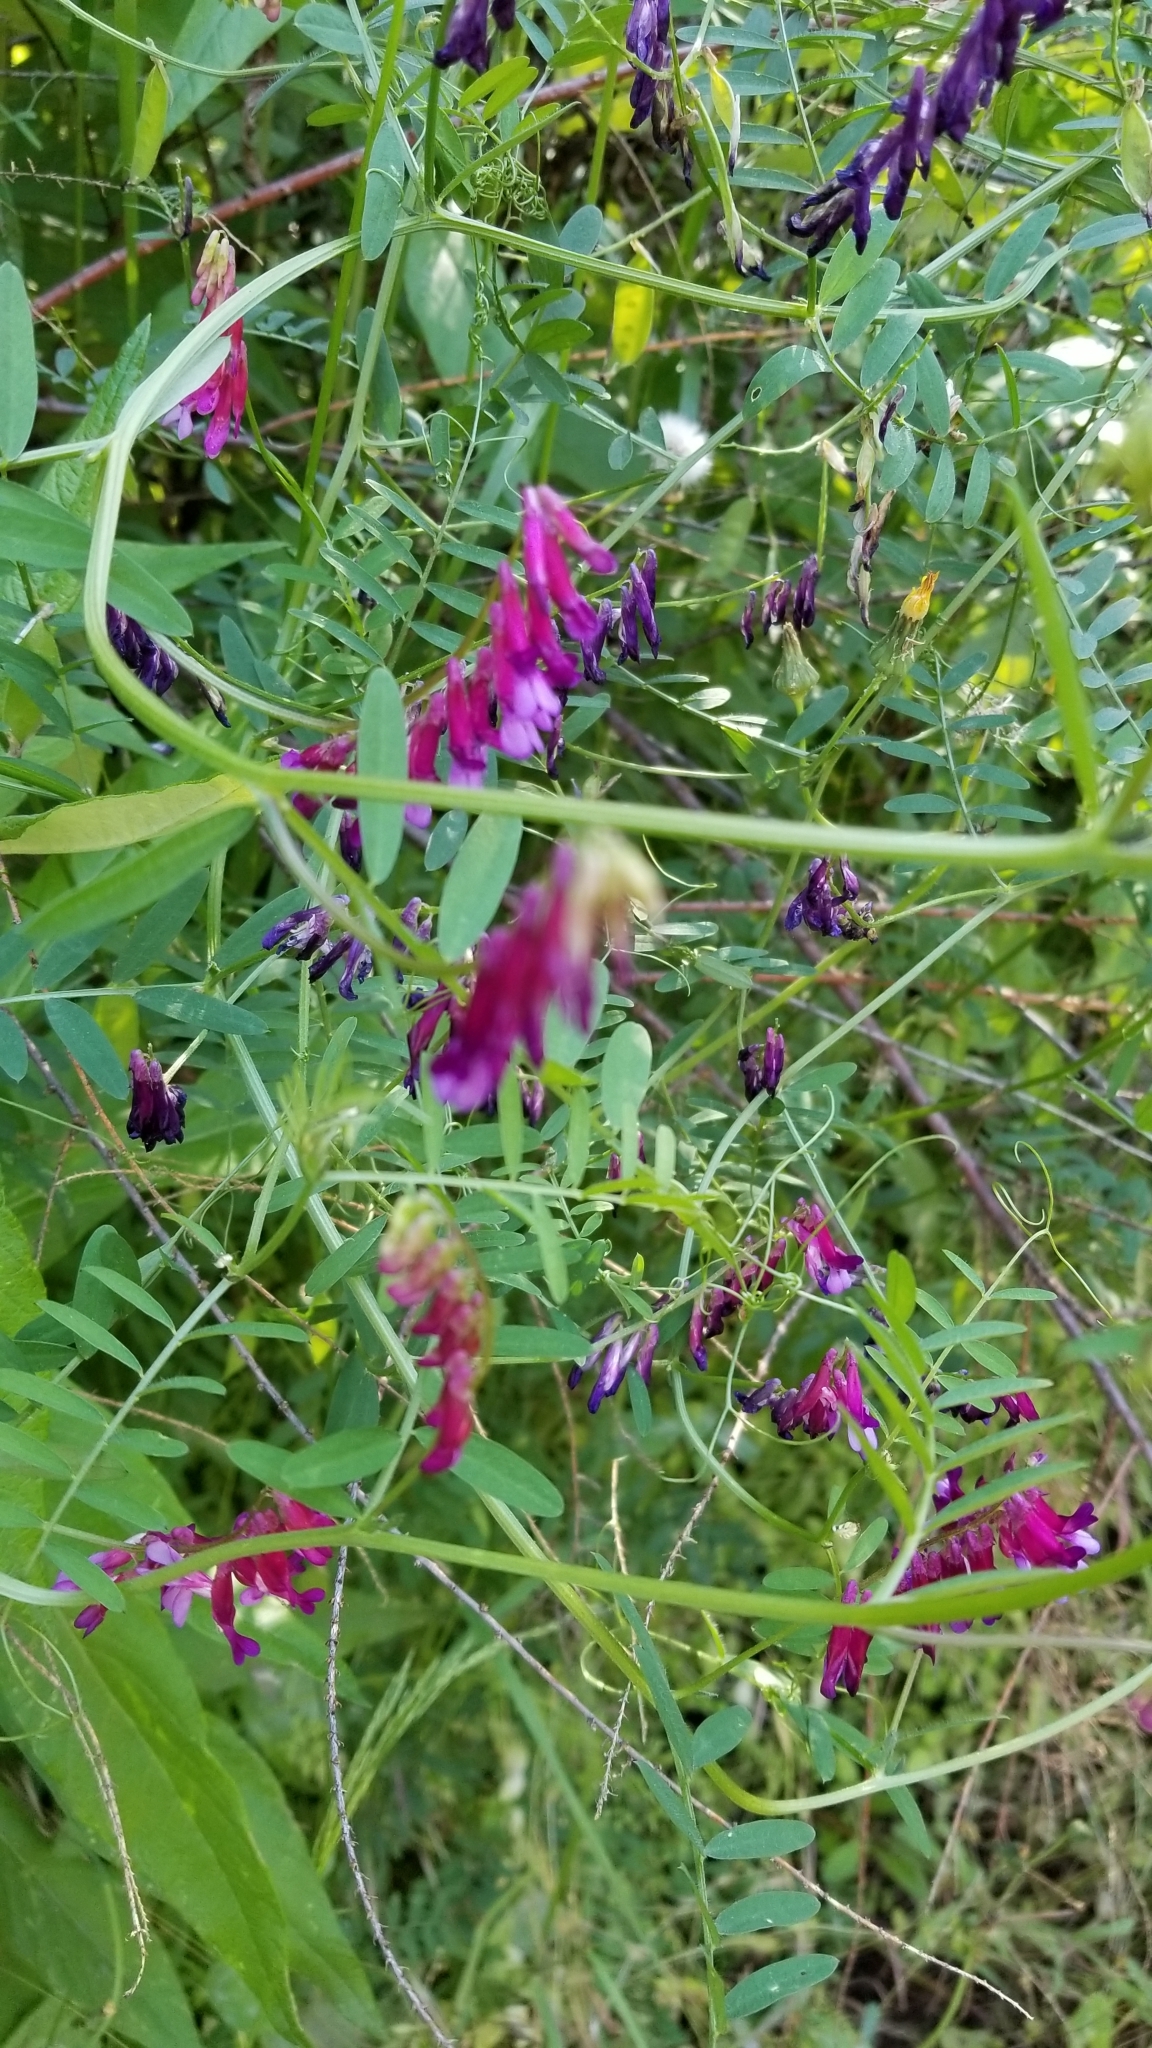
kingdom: Plantae
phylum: Tracheophyta
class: Magnoliopsida
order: Fabales
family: Fabaceae
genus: Vicia
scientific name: Vicia villosa
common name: Fodder vetch
